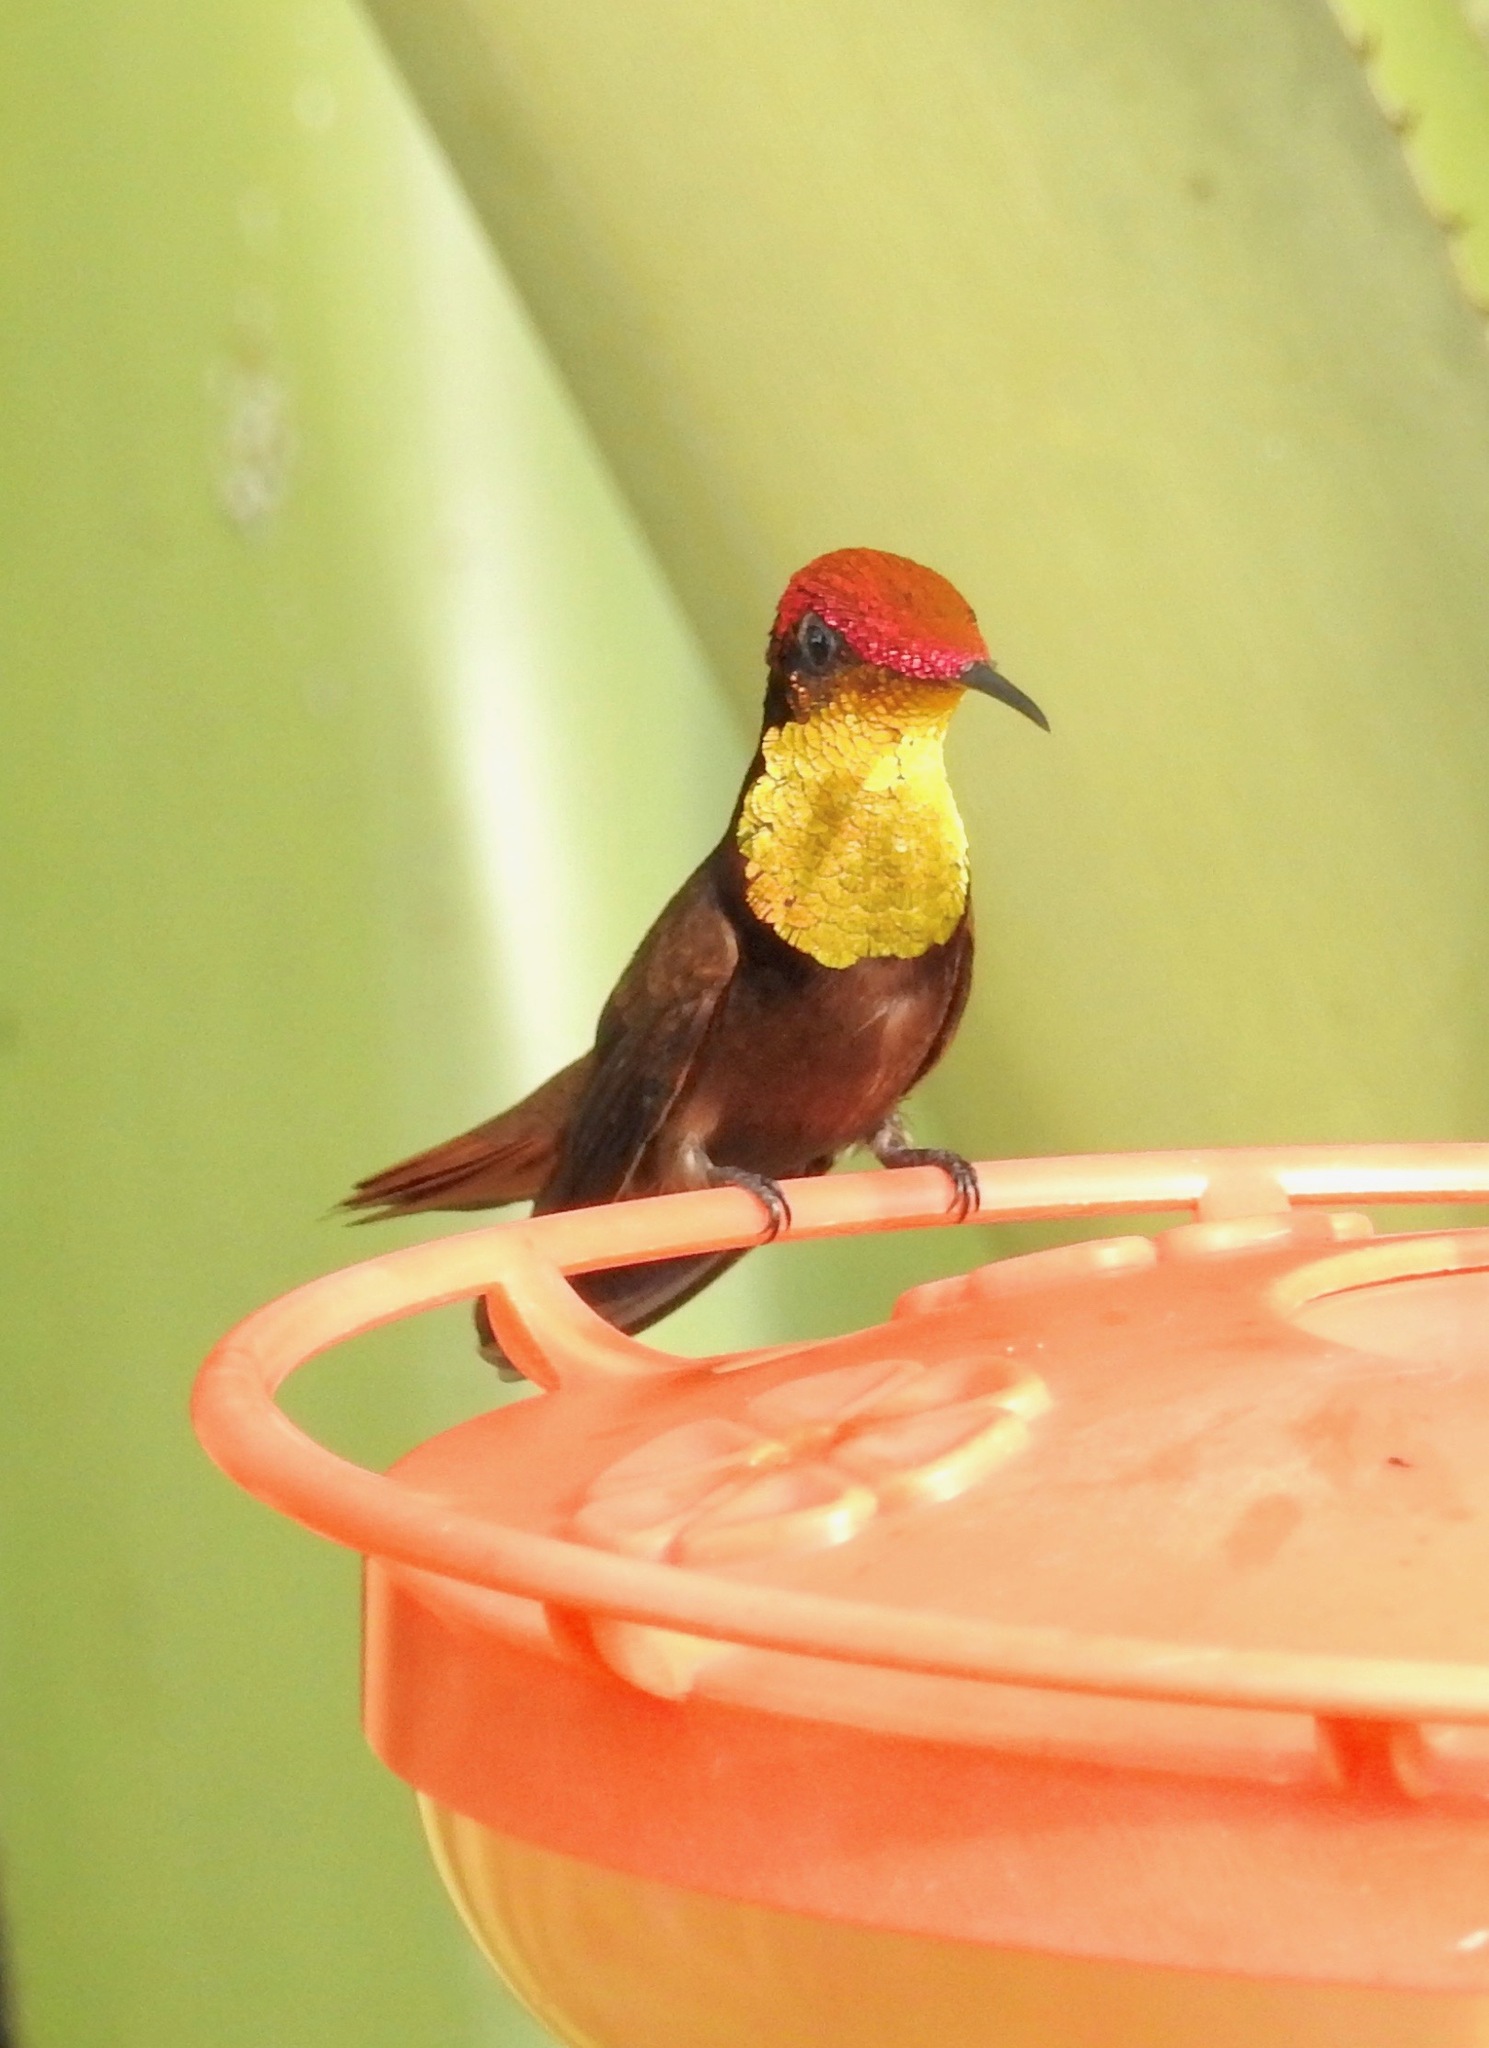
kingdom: Animalia
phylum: Chordata
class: Aves
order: Apodiformes
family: Trochilidae
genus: Chrysolampis
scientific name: Chrysolampis mosquitus
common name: Ruby-topaz hummingbird
